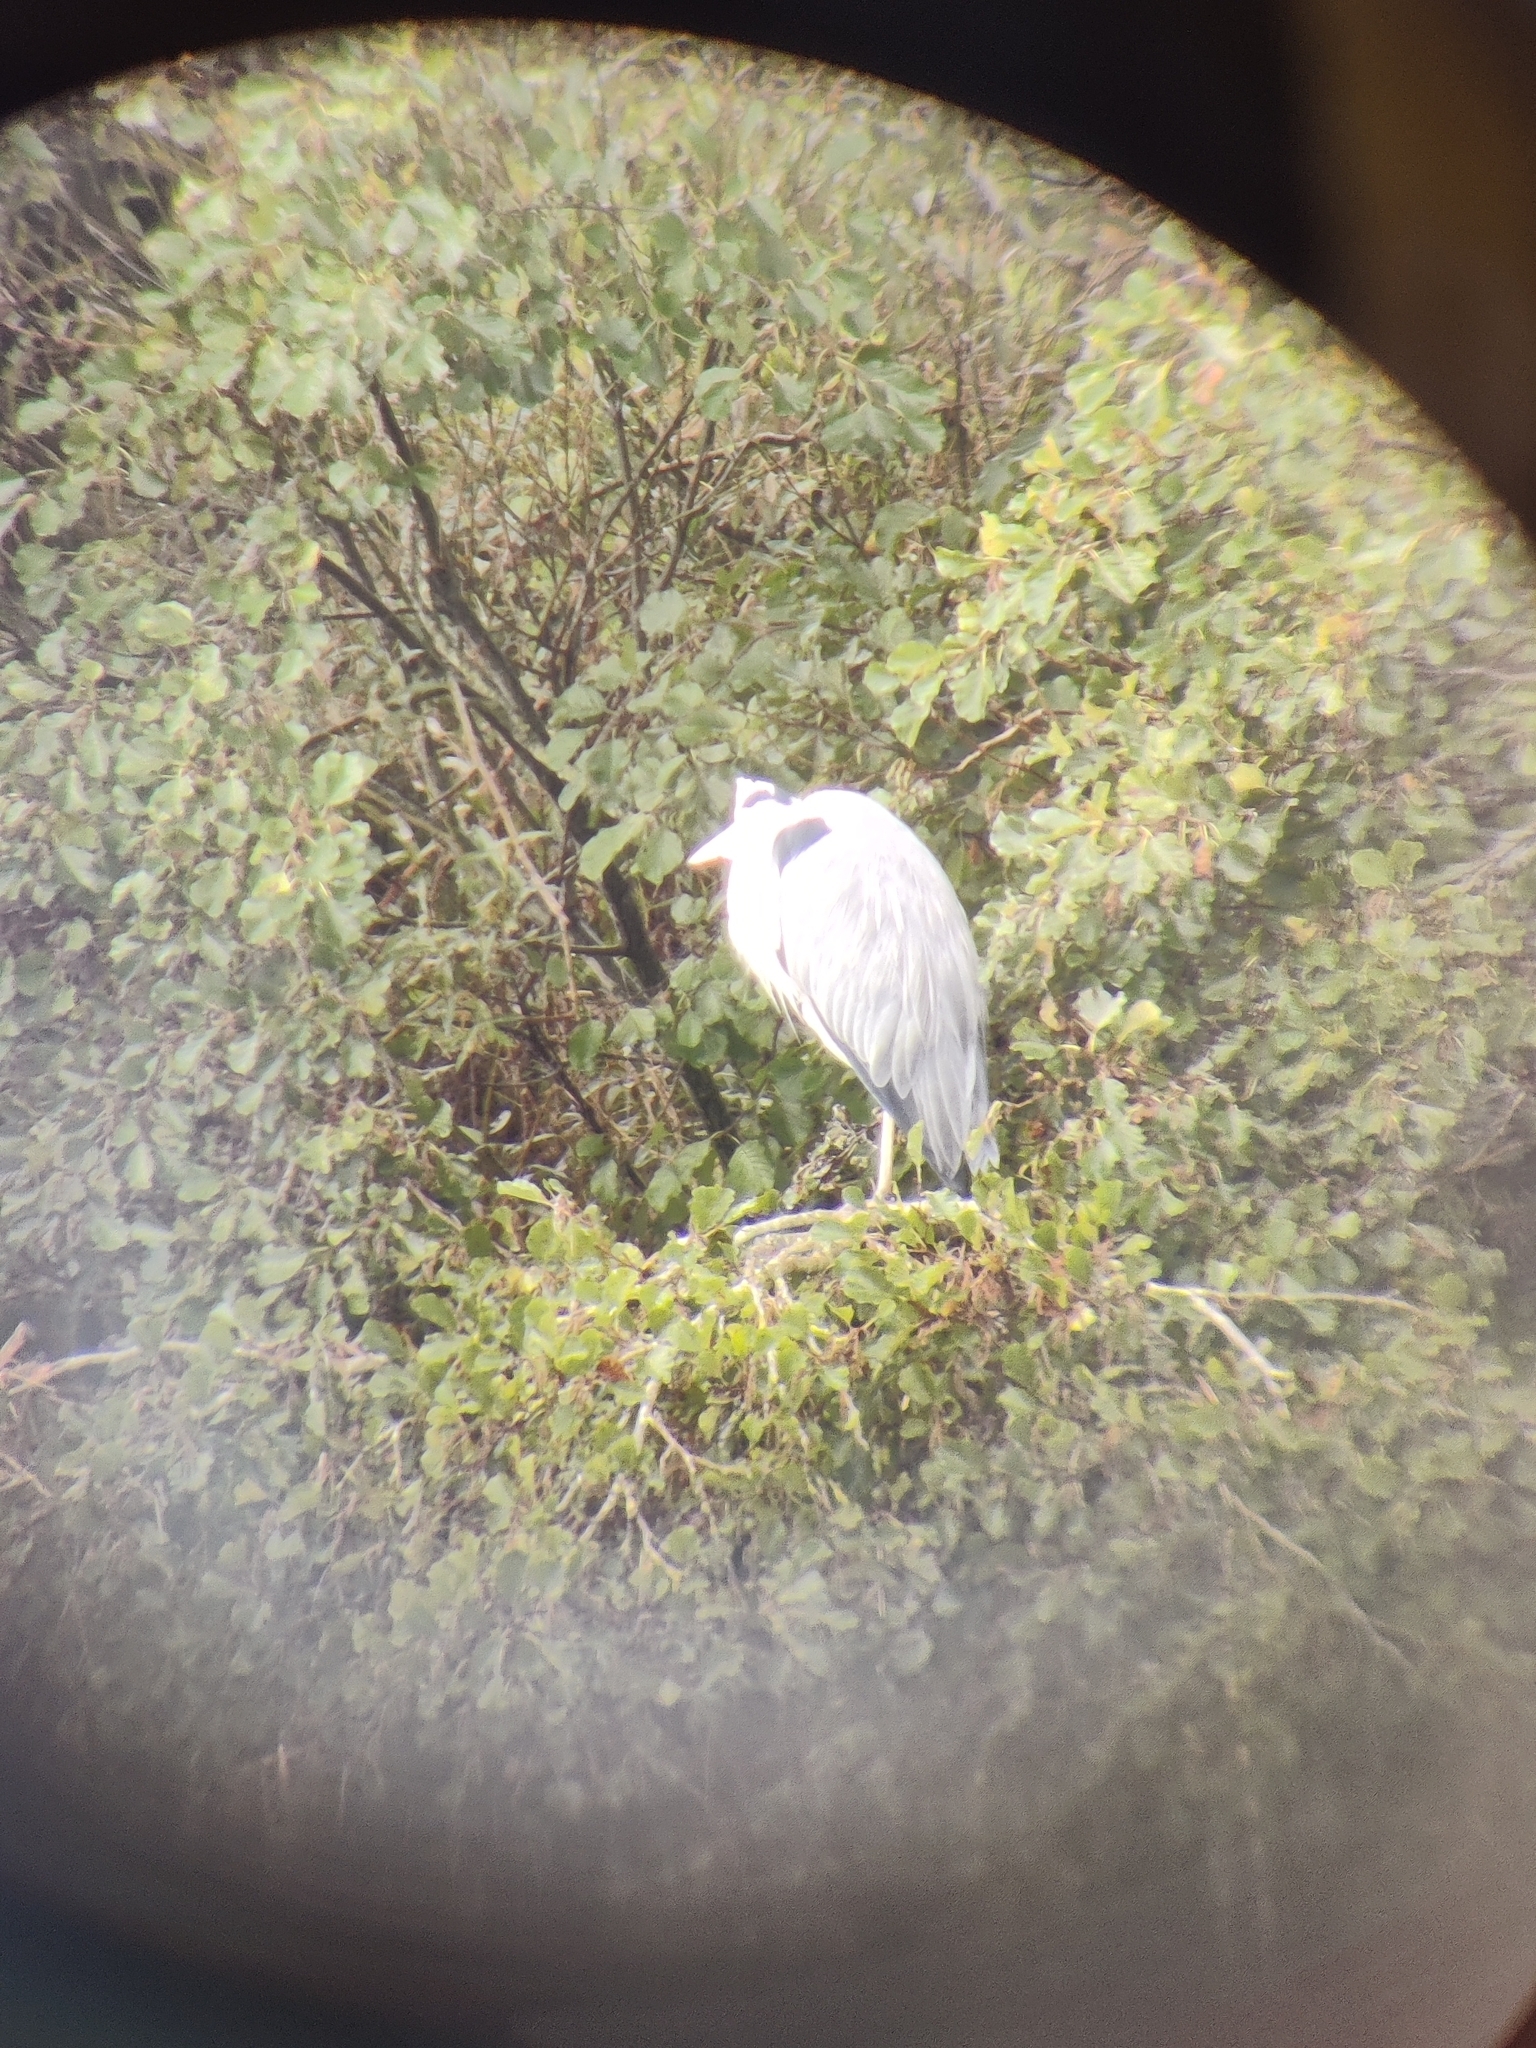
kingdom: Animalia
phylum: Chordata
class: Aves
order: Pelecaniformes
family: Ardeidae
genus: Ardea
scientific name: Ardea cinerea
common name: Grey heron
